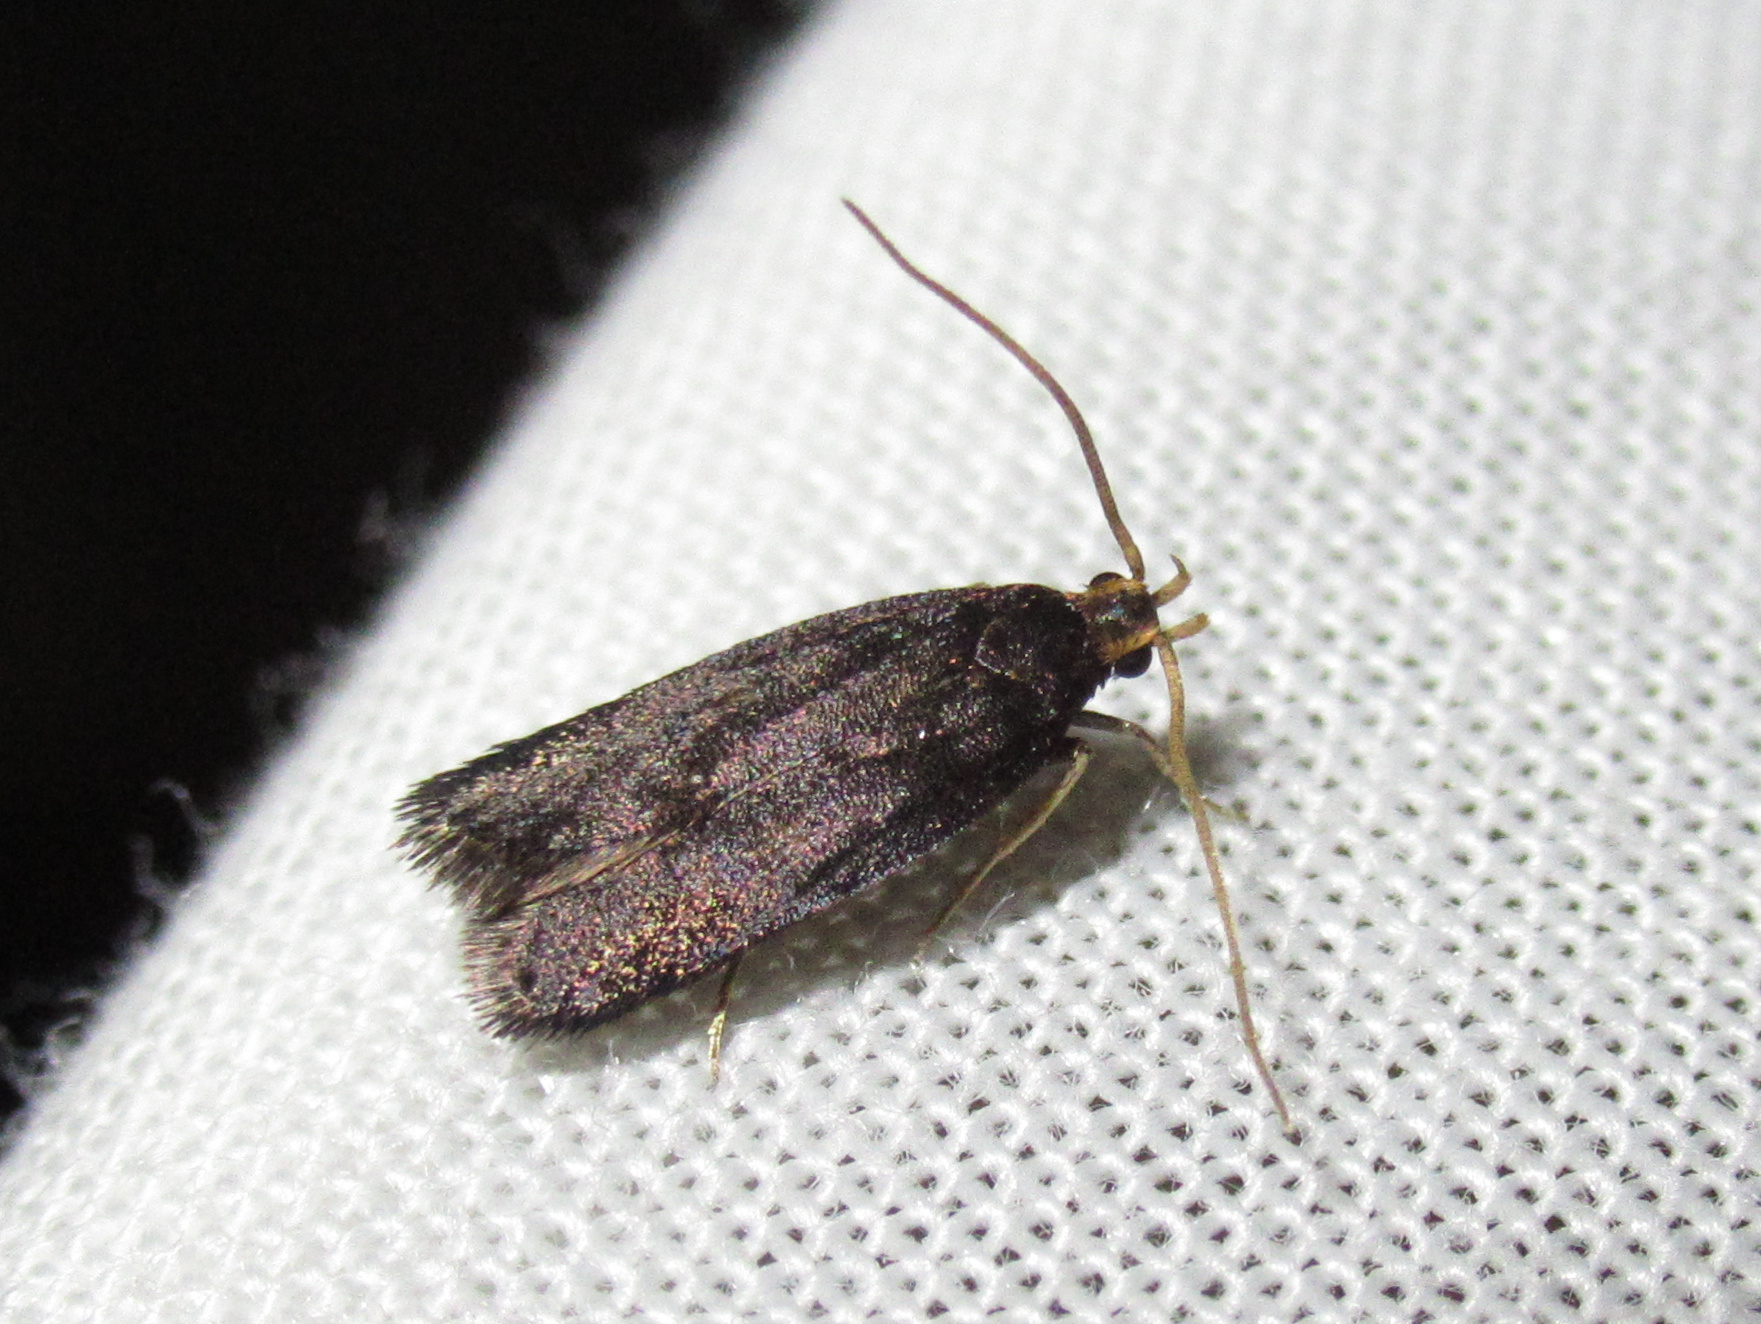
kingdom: Animalia
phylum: Arthropoda
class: Insecta
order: Lepidoptera
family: Lecithoceridae
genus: Lecithocera
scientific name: Lecithocera micromela
